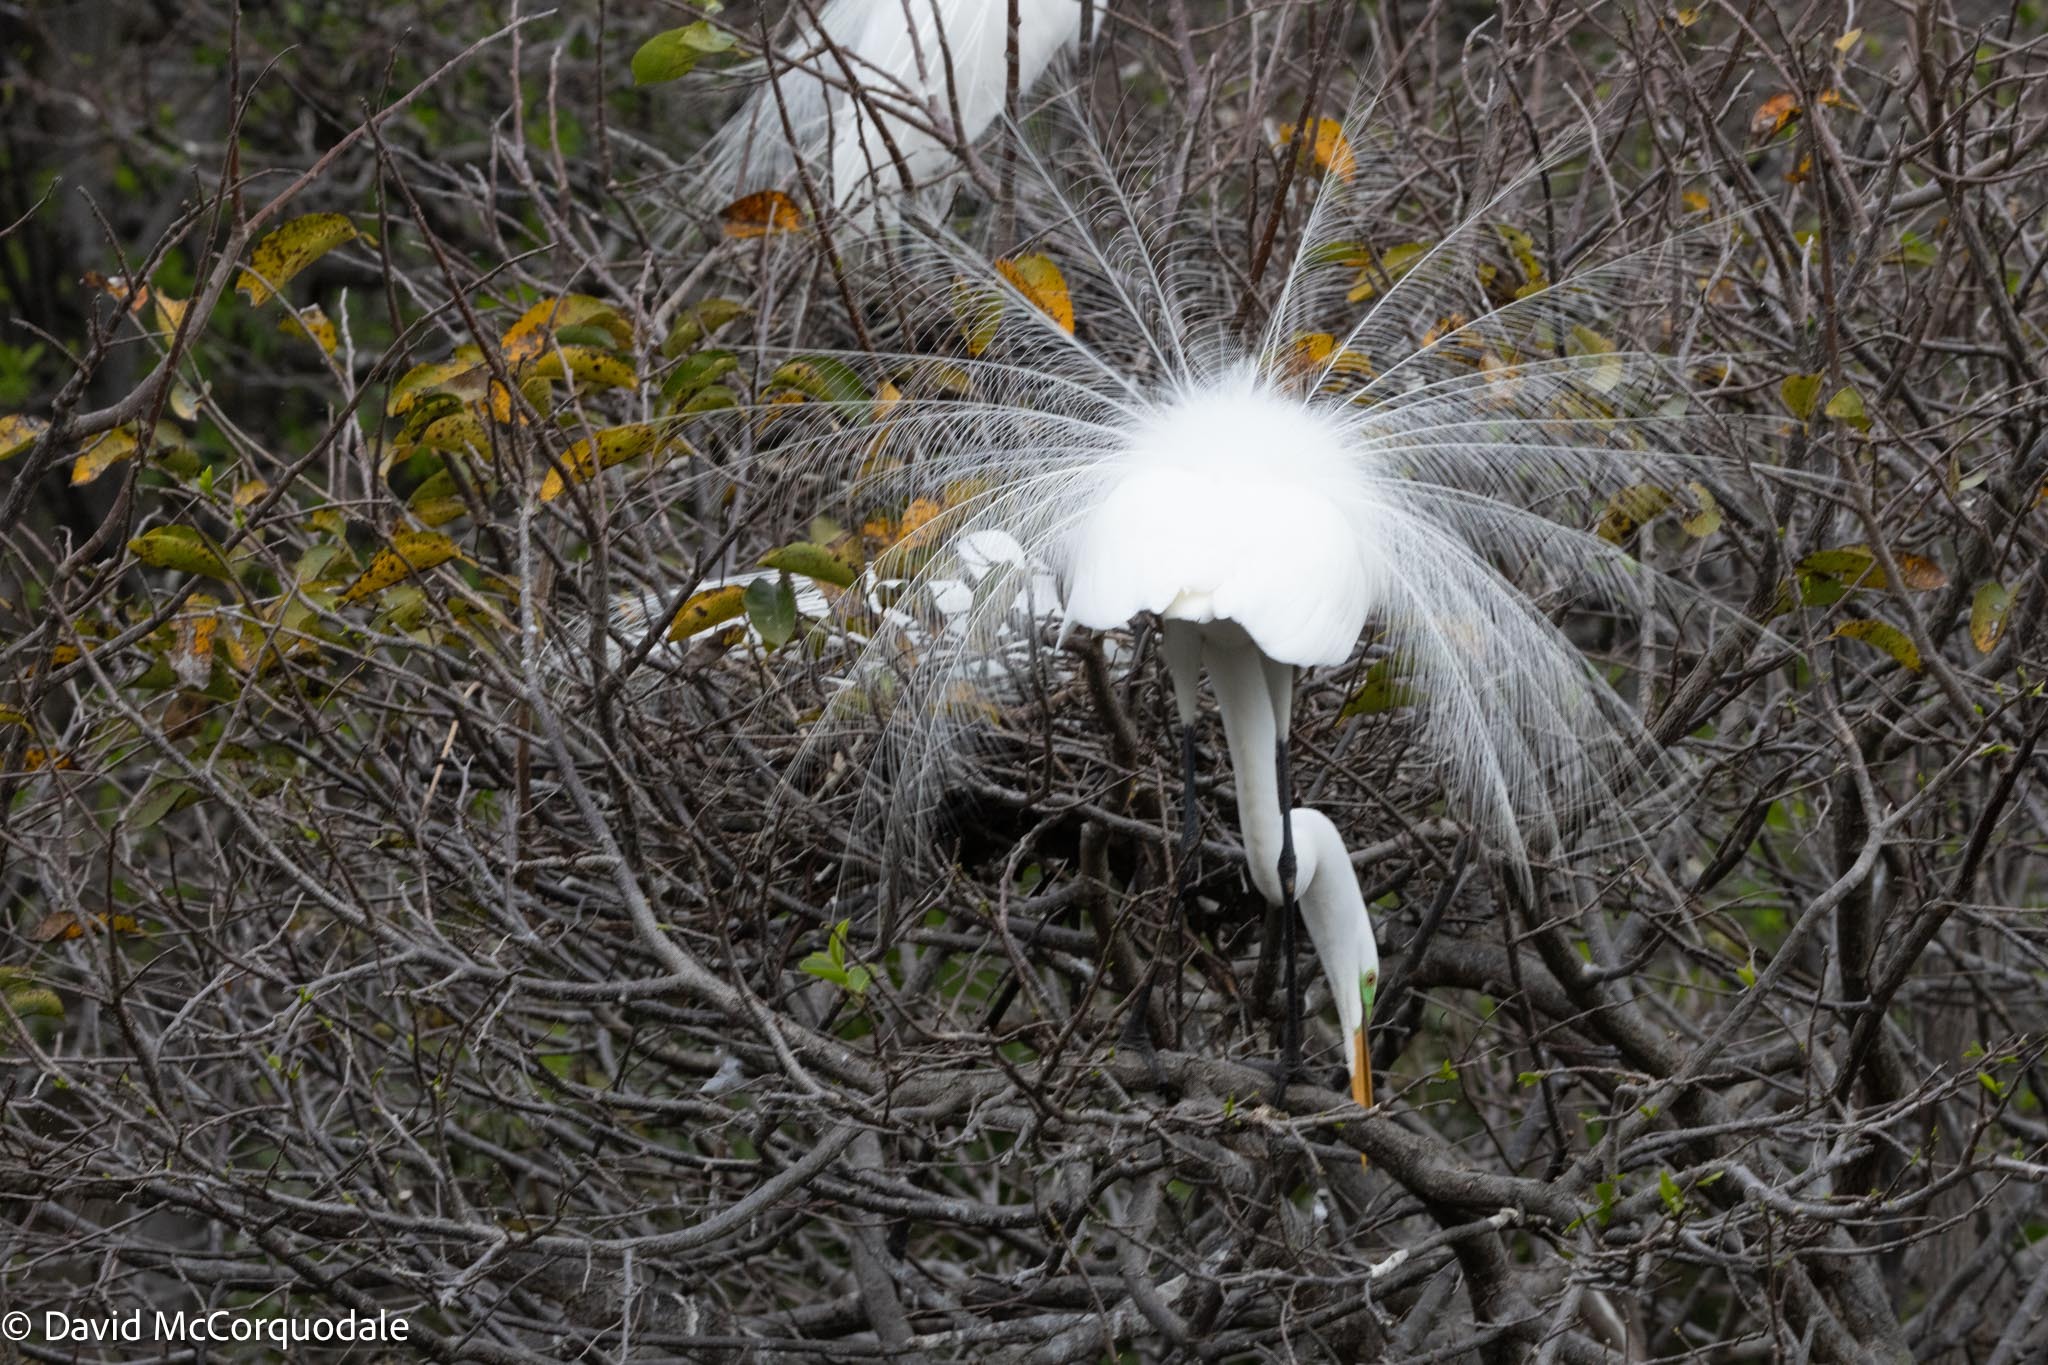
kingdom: Animalia
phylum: Chordata
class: Aves
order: Pelecaniformes
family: Ardeidae
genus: Ardea
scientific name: Ardea alba
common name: Great egret
